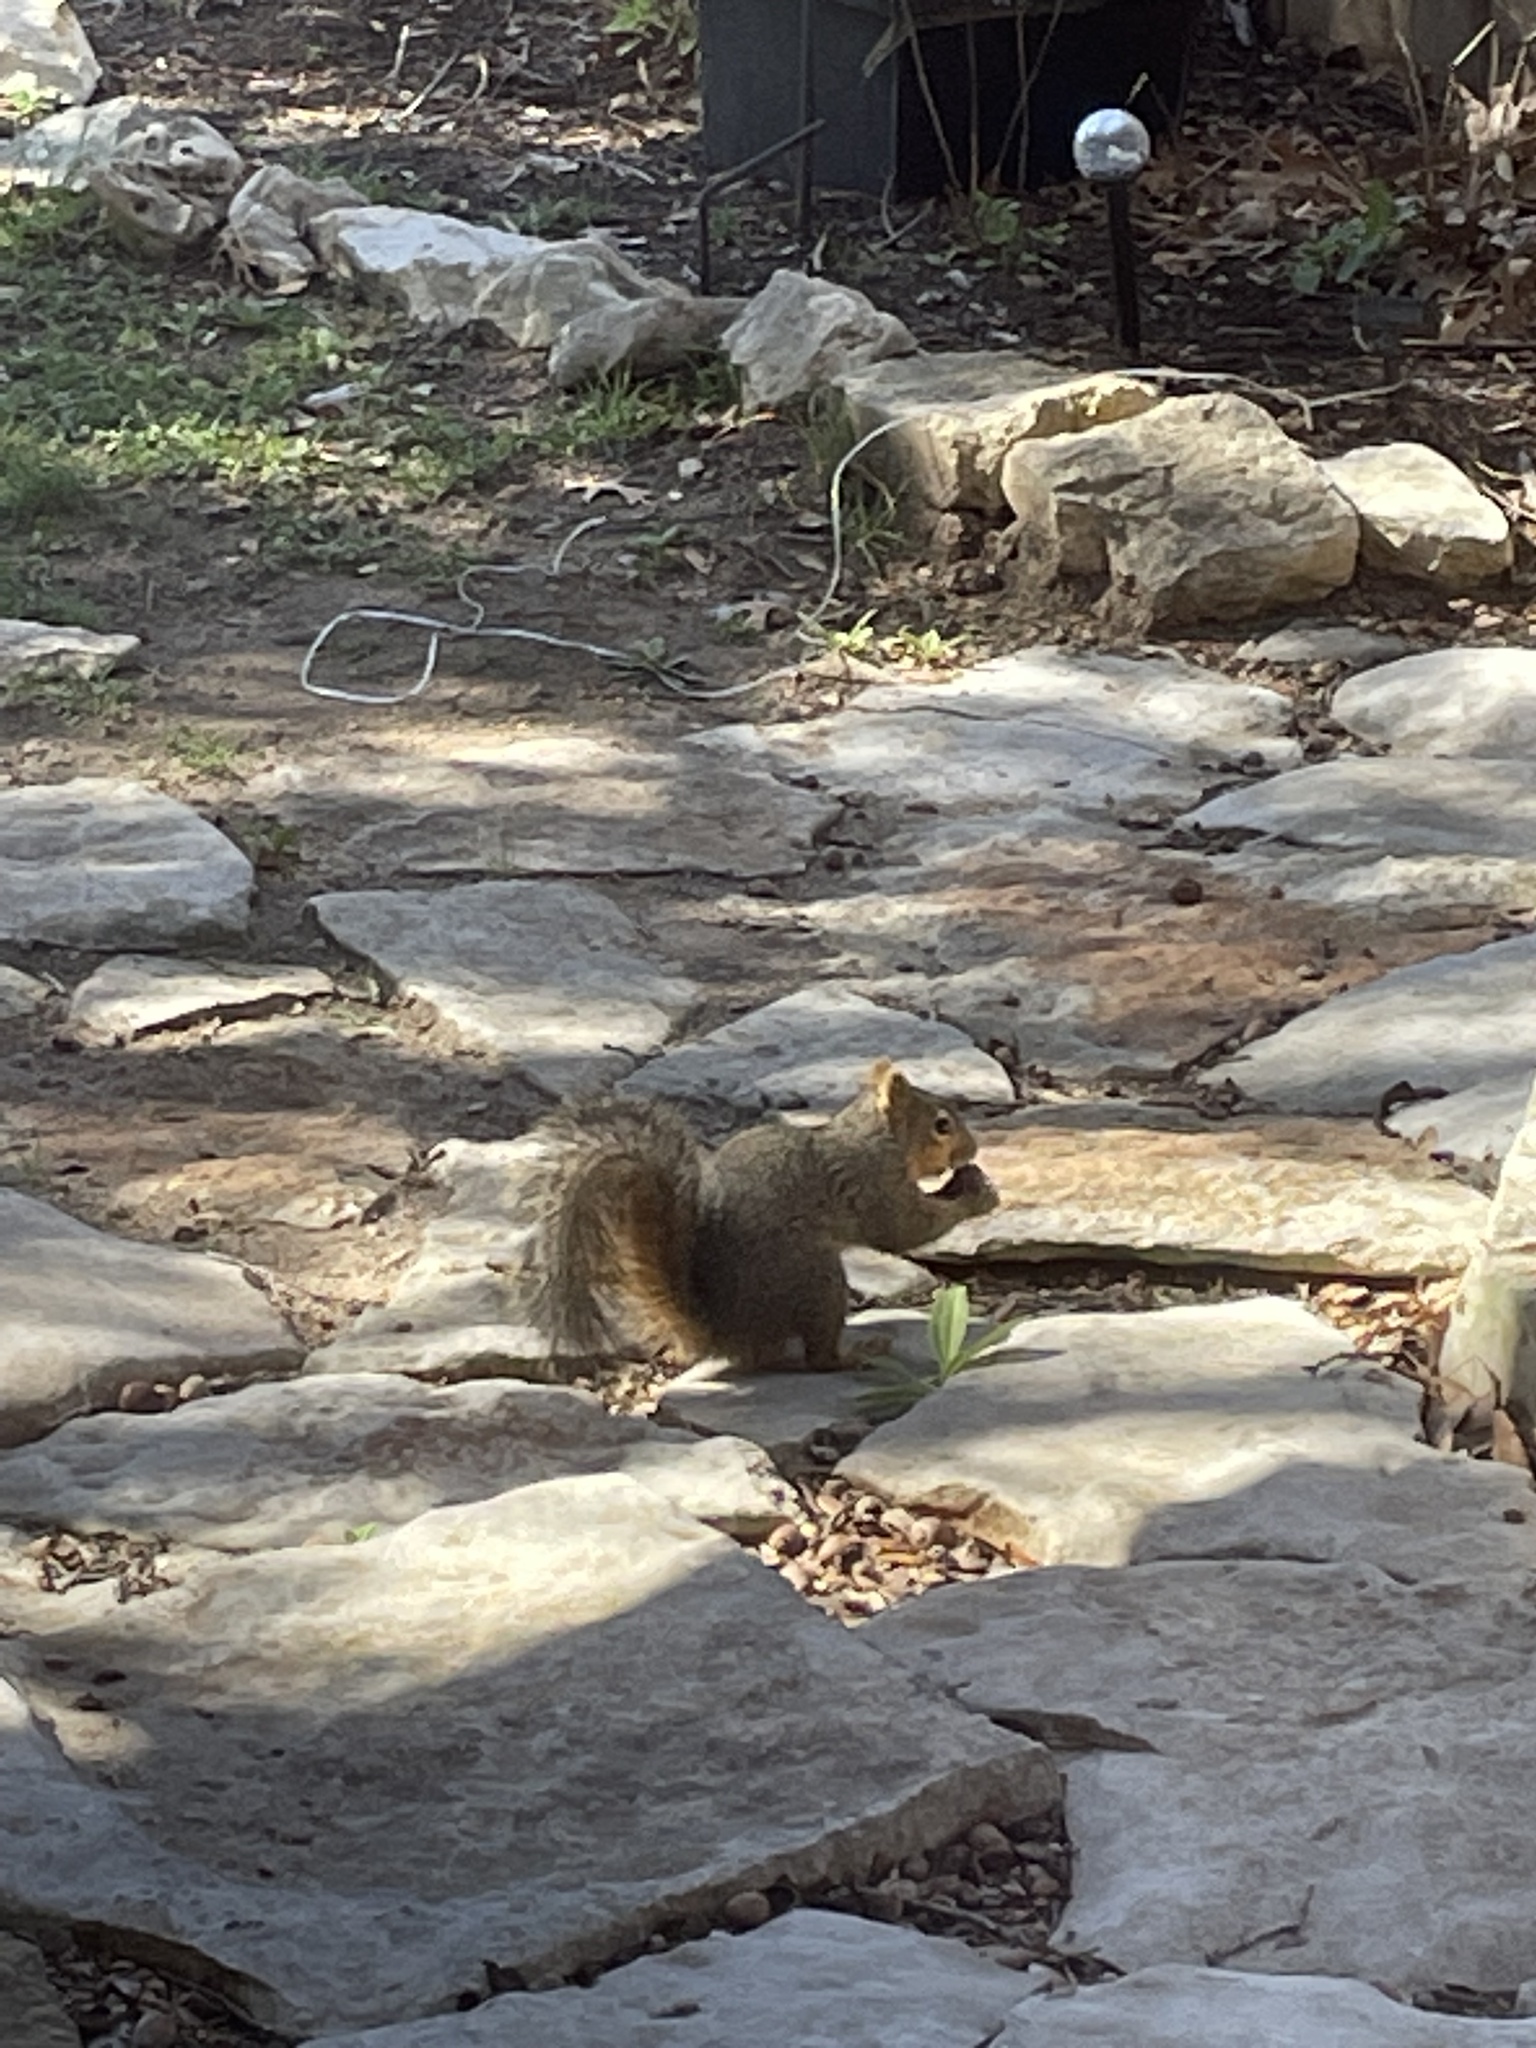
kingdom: Animalia
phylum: Chordata
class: Mammalia
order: Rodentia
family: Sciuridae
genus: Sciurus
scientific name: Sciurus niger
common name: Fox squirrel
